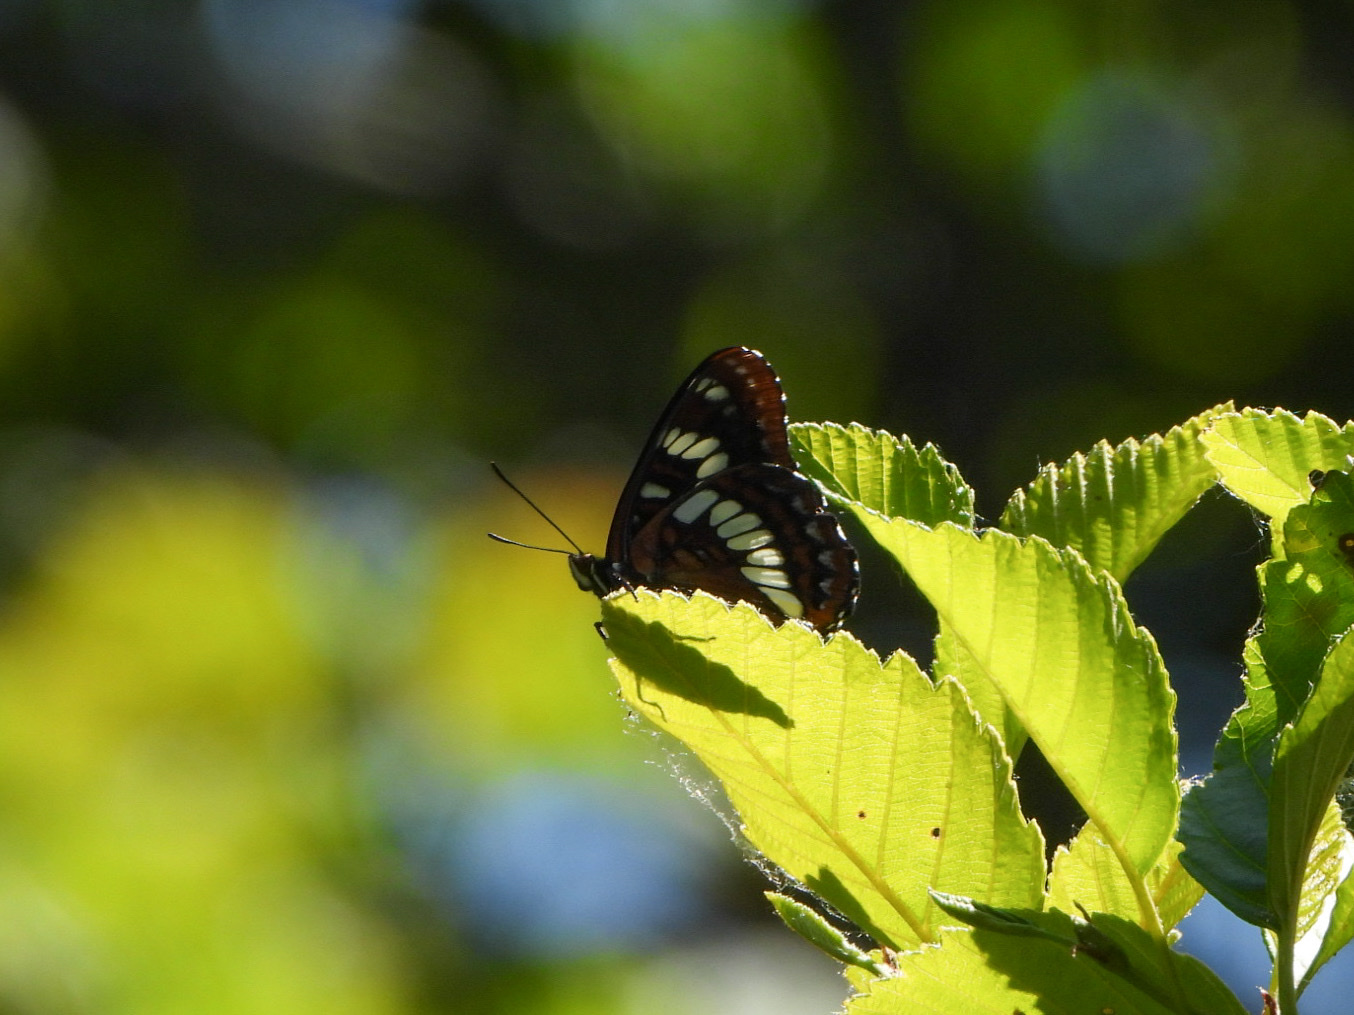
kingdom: Animalia
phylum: Arthropoda
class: Insecta
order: Lepidoptera
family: Nymphalidae
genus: Limenitis
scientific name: Limenitis lorquini
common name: Lorquin's admiral
